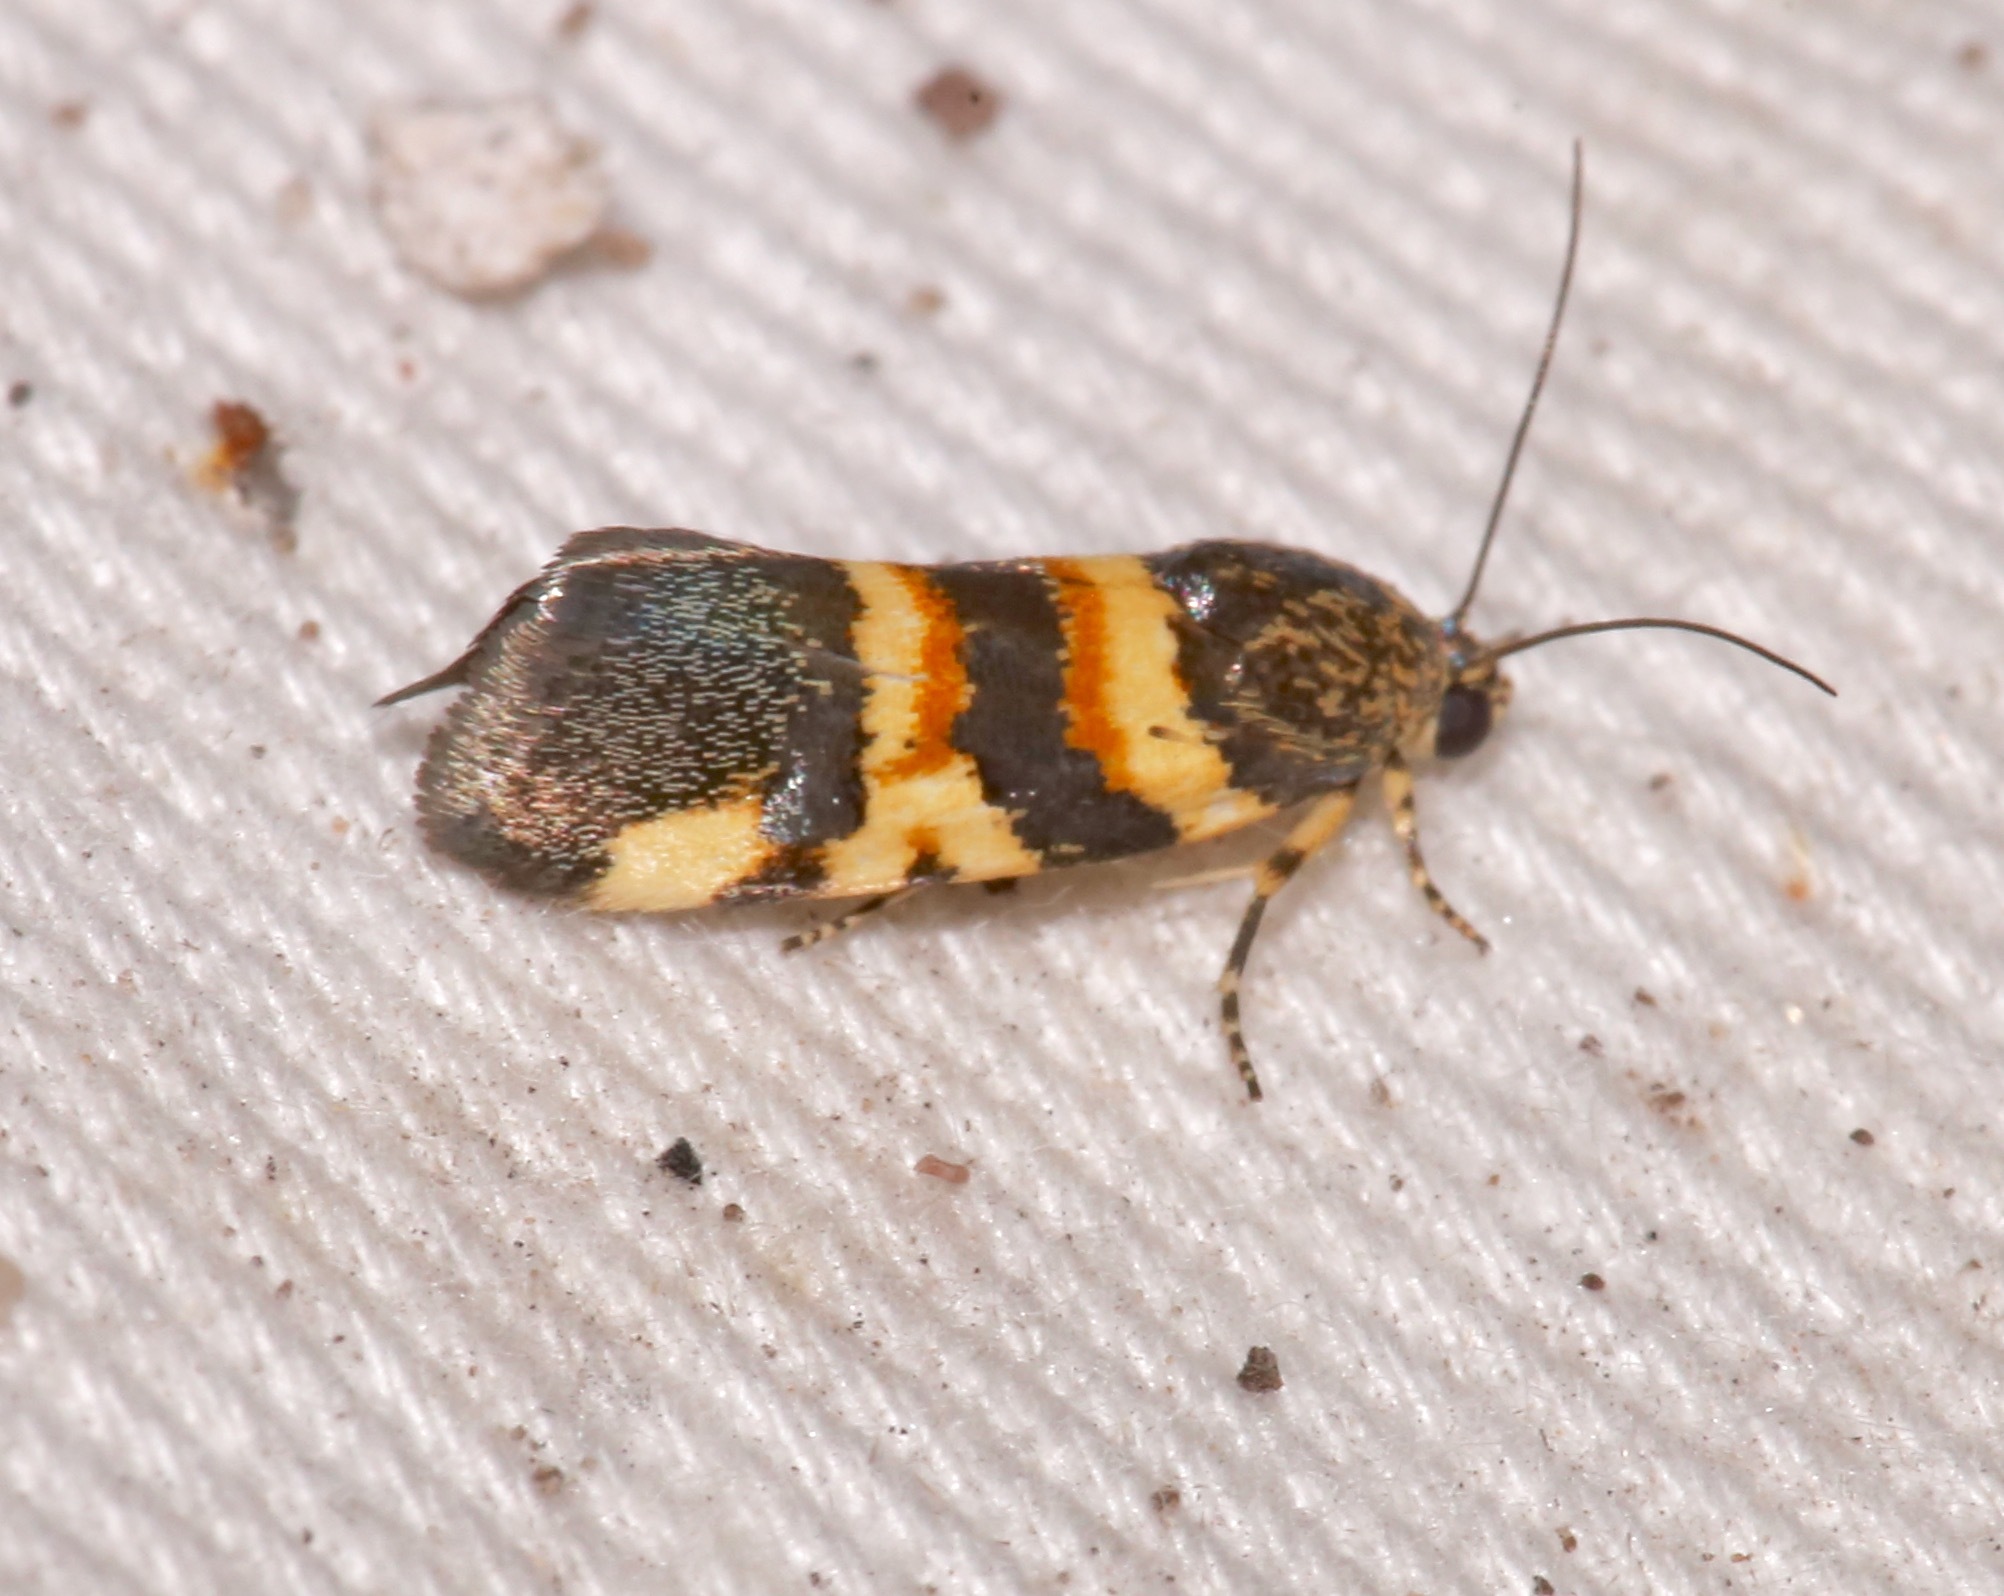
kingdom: Animalia
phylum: Arthropoda
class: Insecta
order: Lepidoptera
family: Noctuidae
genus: Spragueia
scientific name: Spragueia funeralis
